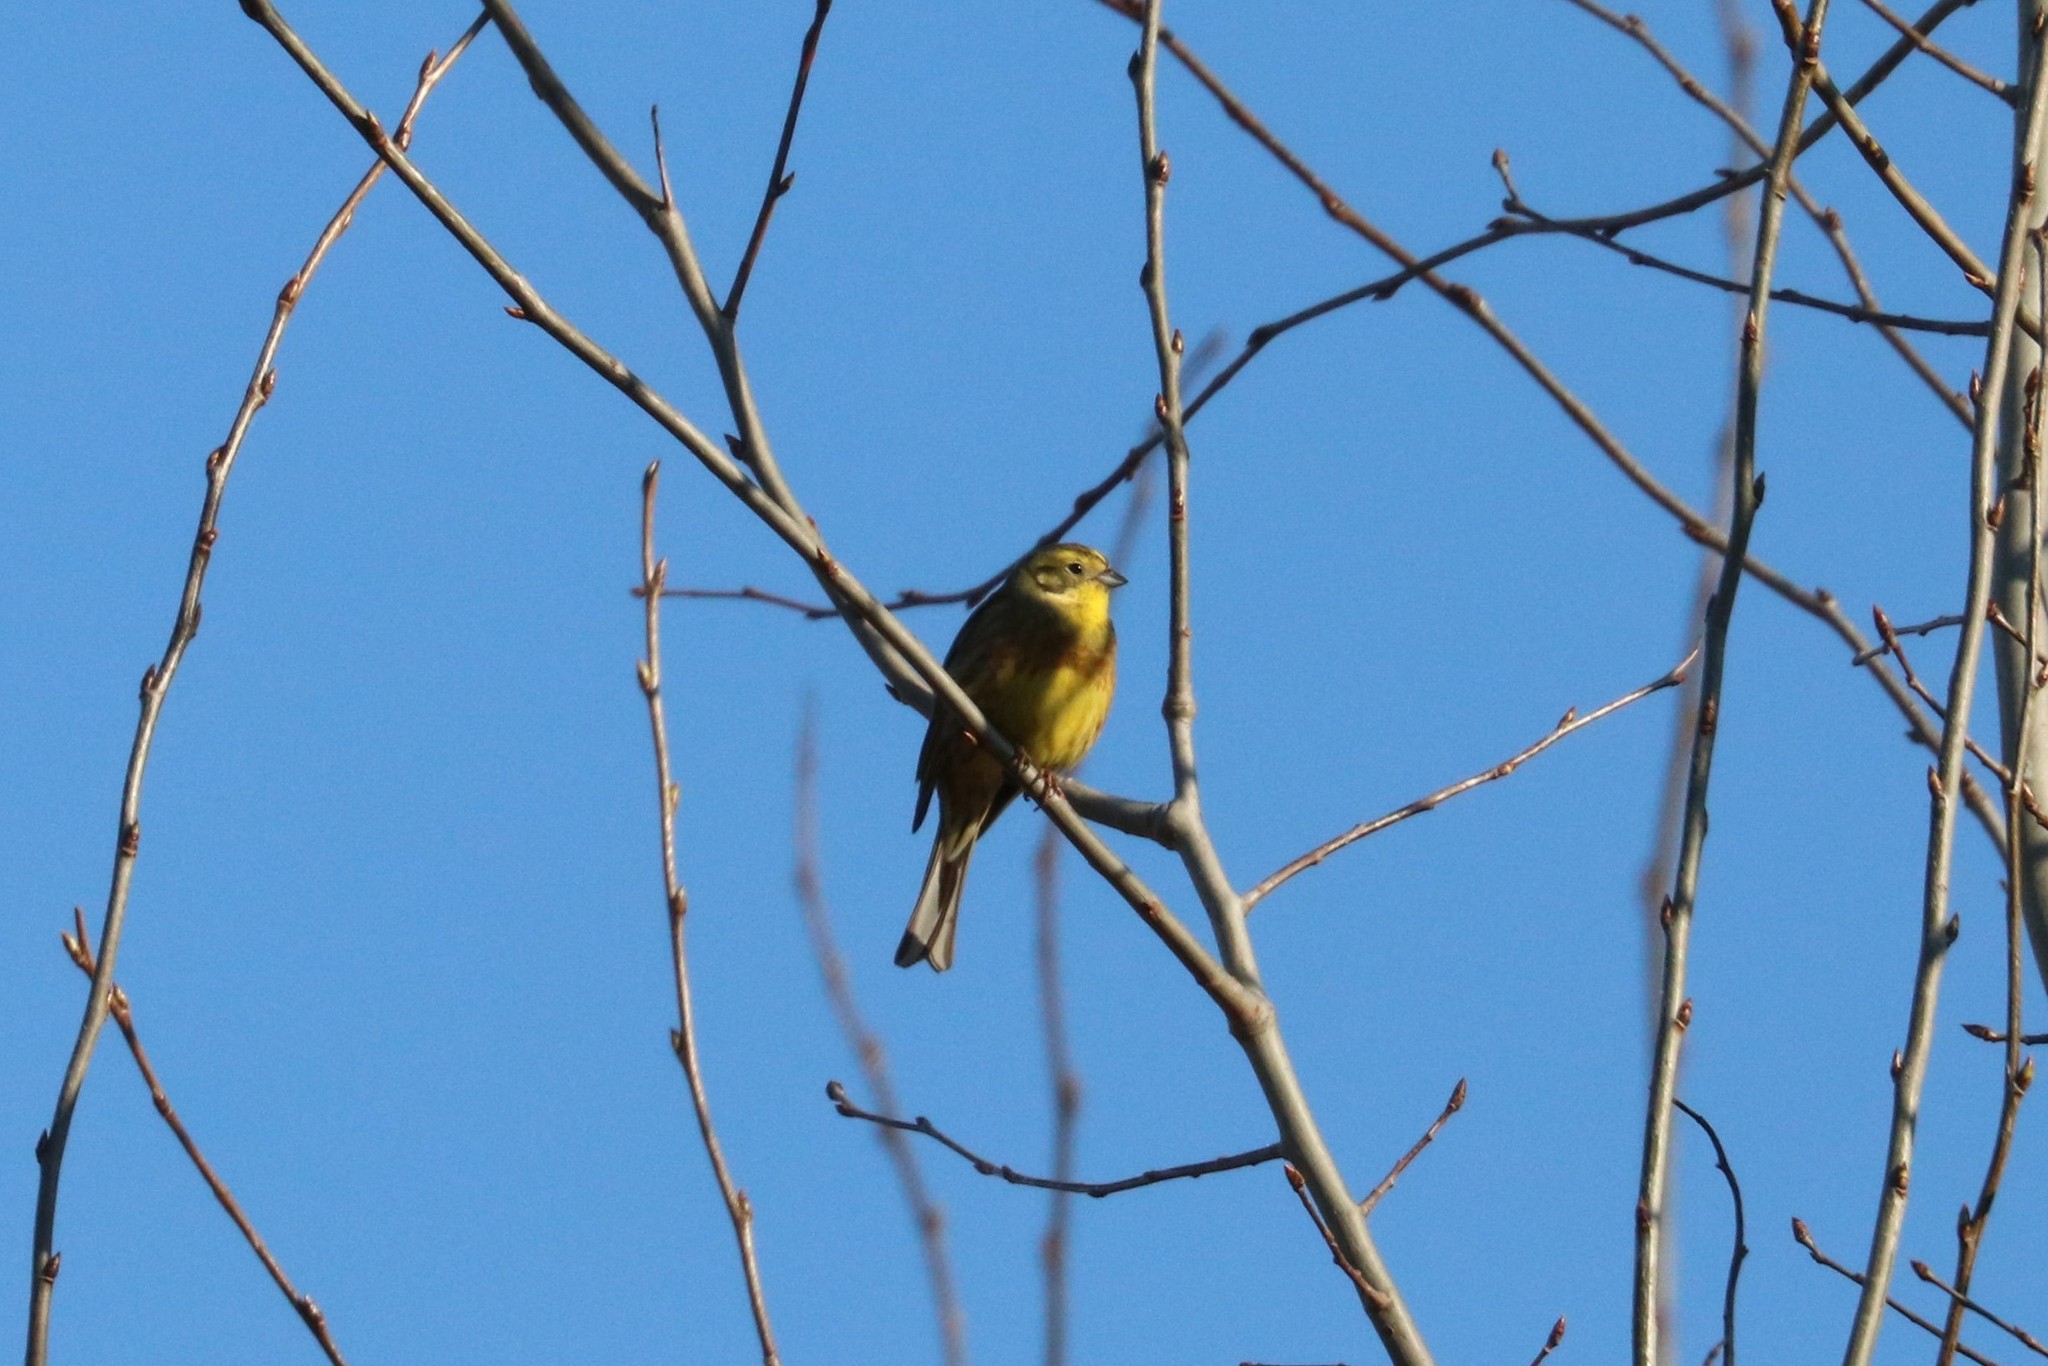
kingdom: Animalia
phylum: Chordata
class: Aves
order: Passeriformes
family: Emberizidae
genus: Emberiza
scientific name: Emberiza citrinella
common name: Yellowhammer
